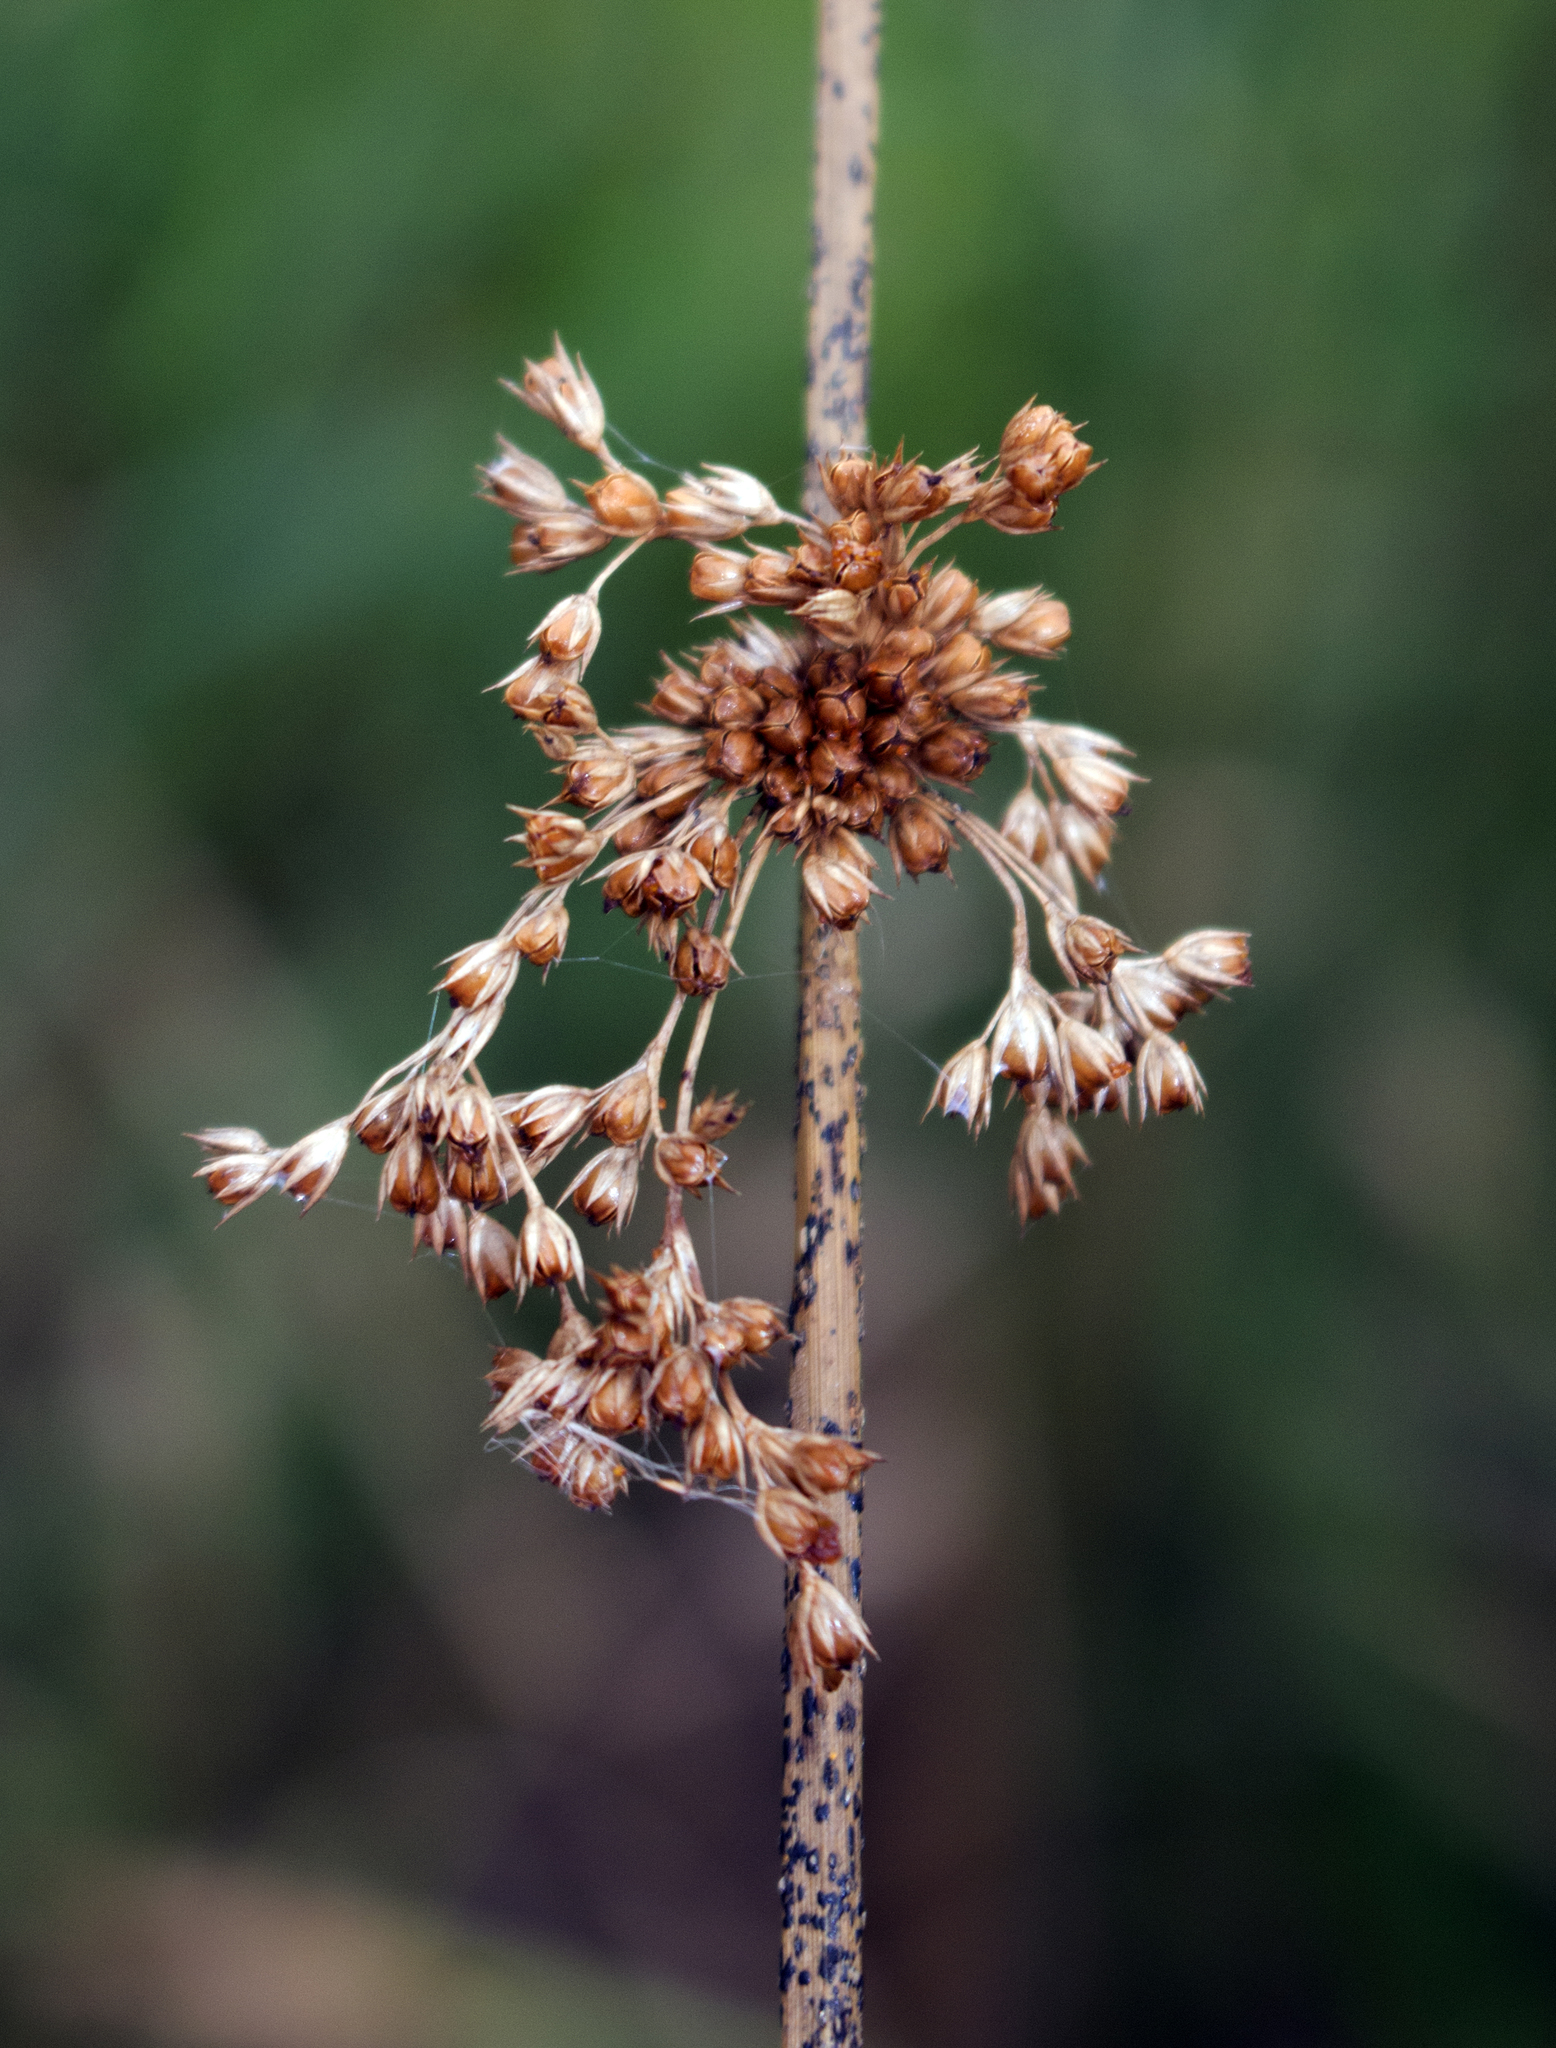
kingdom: Plantae
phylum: Tracheophyta
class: Liliopsida
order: Poales
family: Juncaceae
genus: Juncus
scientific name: Juncus effusus
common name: Soft rush
